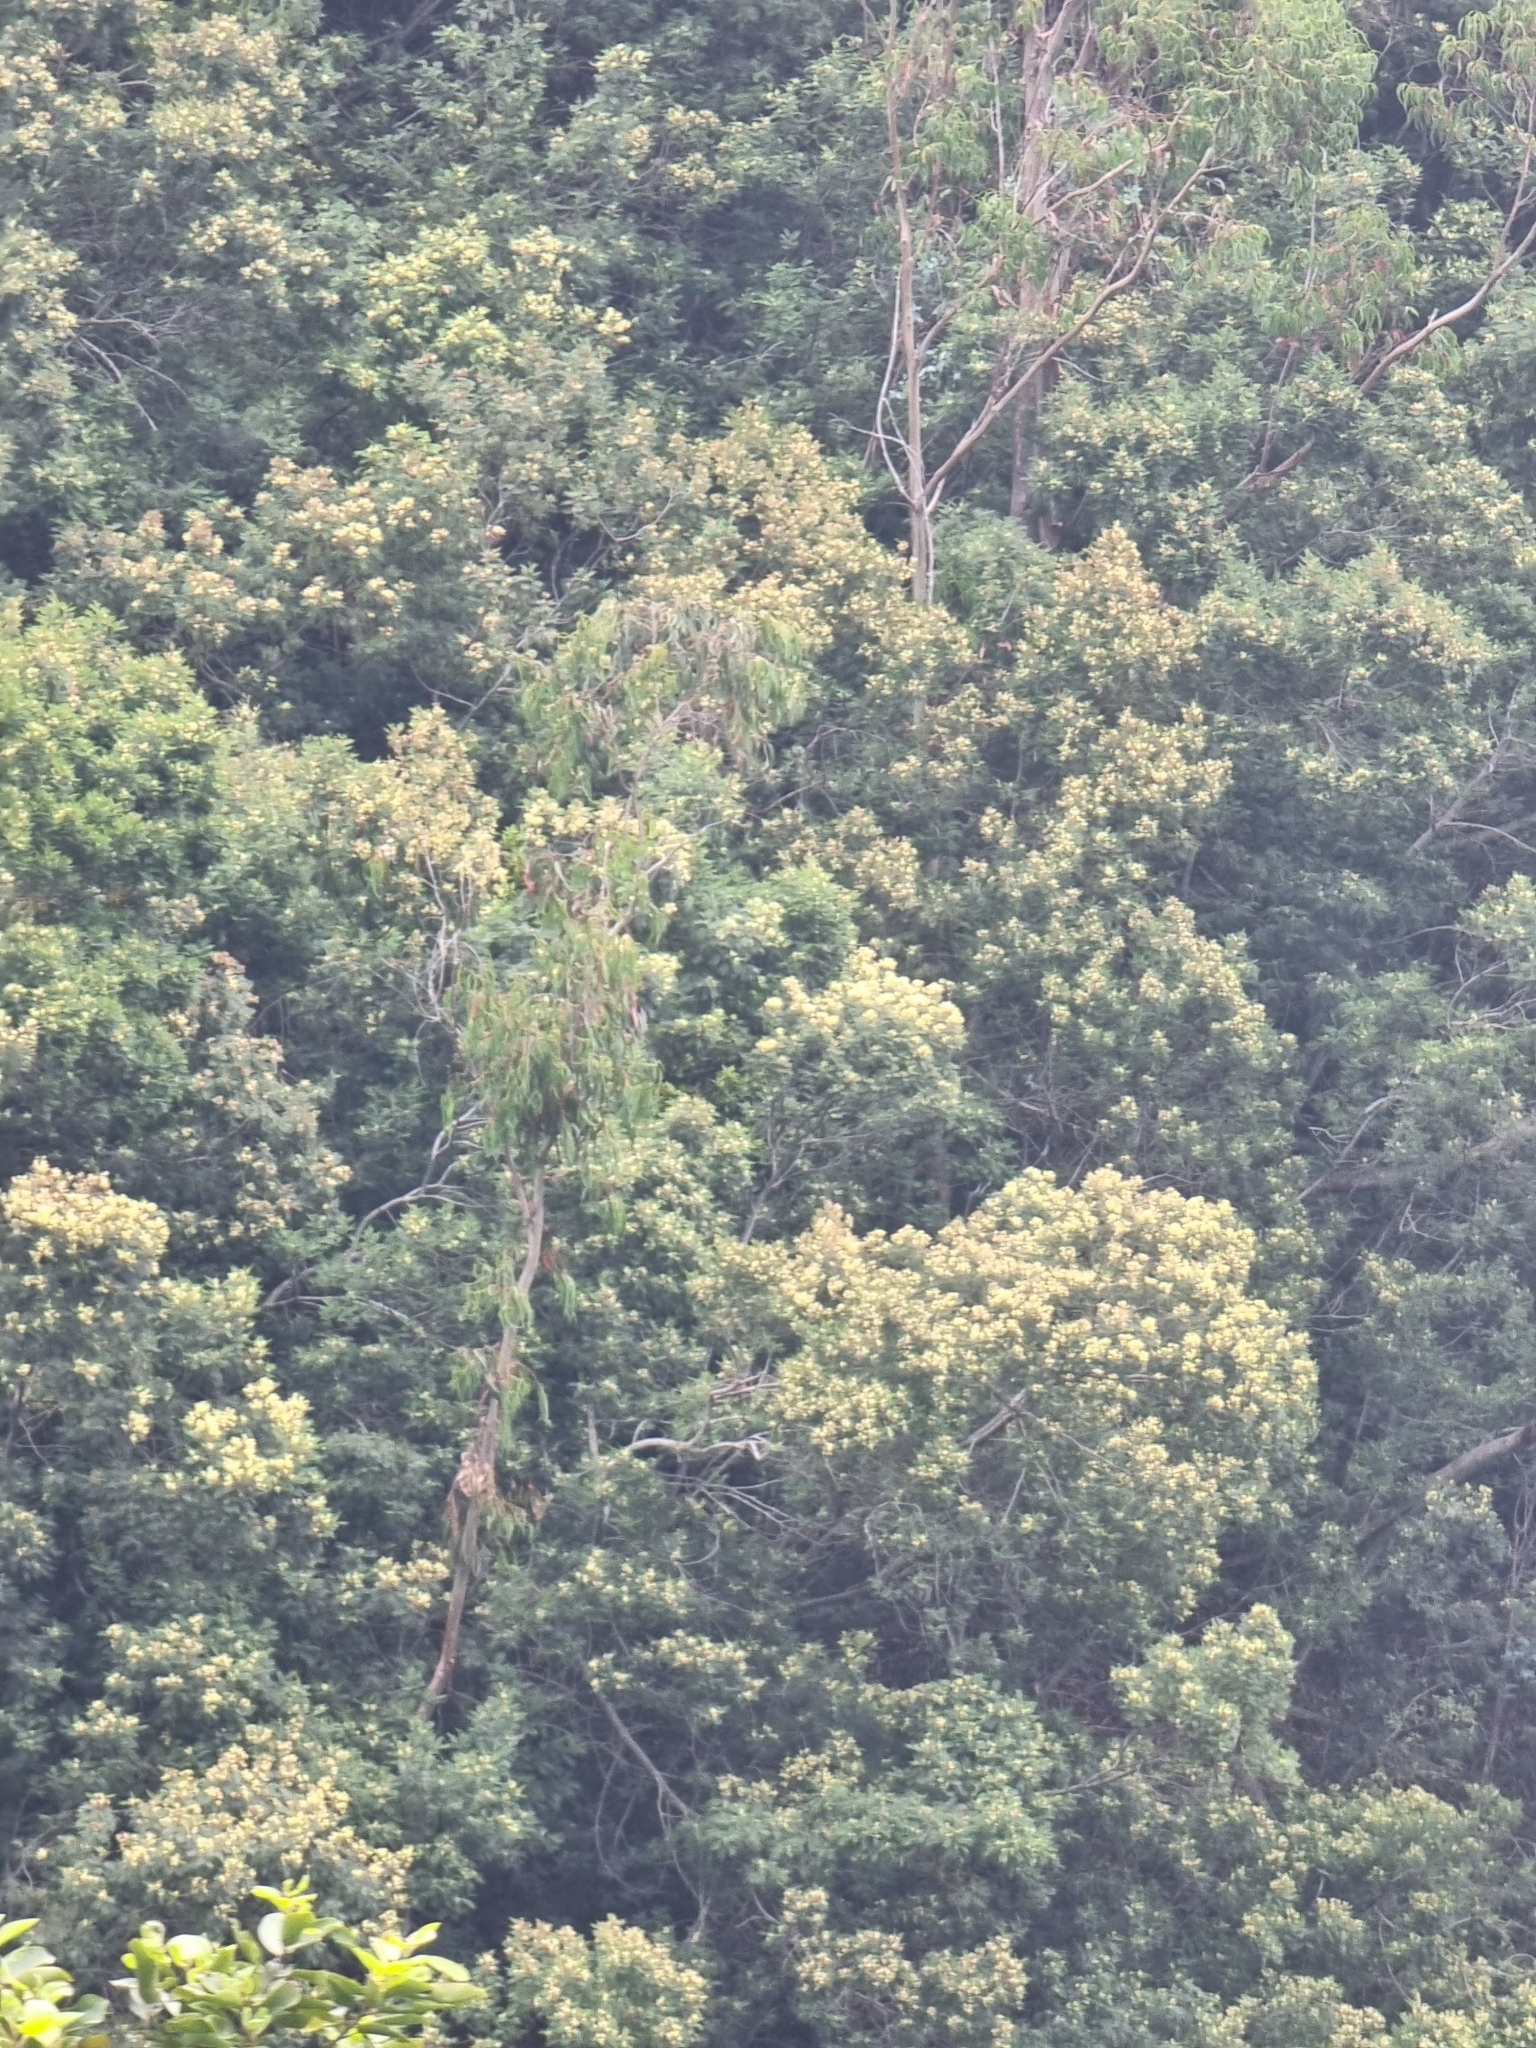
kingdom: Plantae
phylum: Tracheophyta
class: Magnoliopsida
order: Fabales
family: Fabaceae
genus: Acacia
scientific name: Acacia mearnsii
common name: Black wattle
